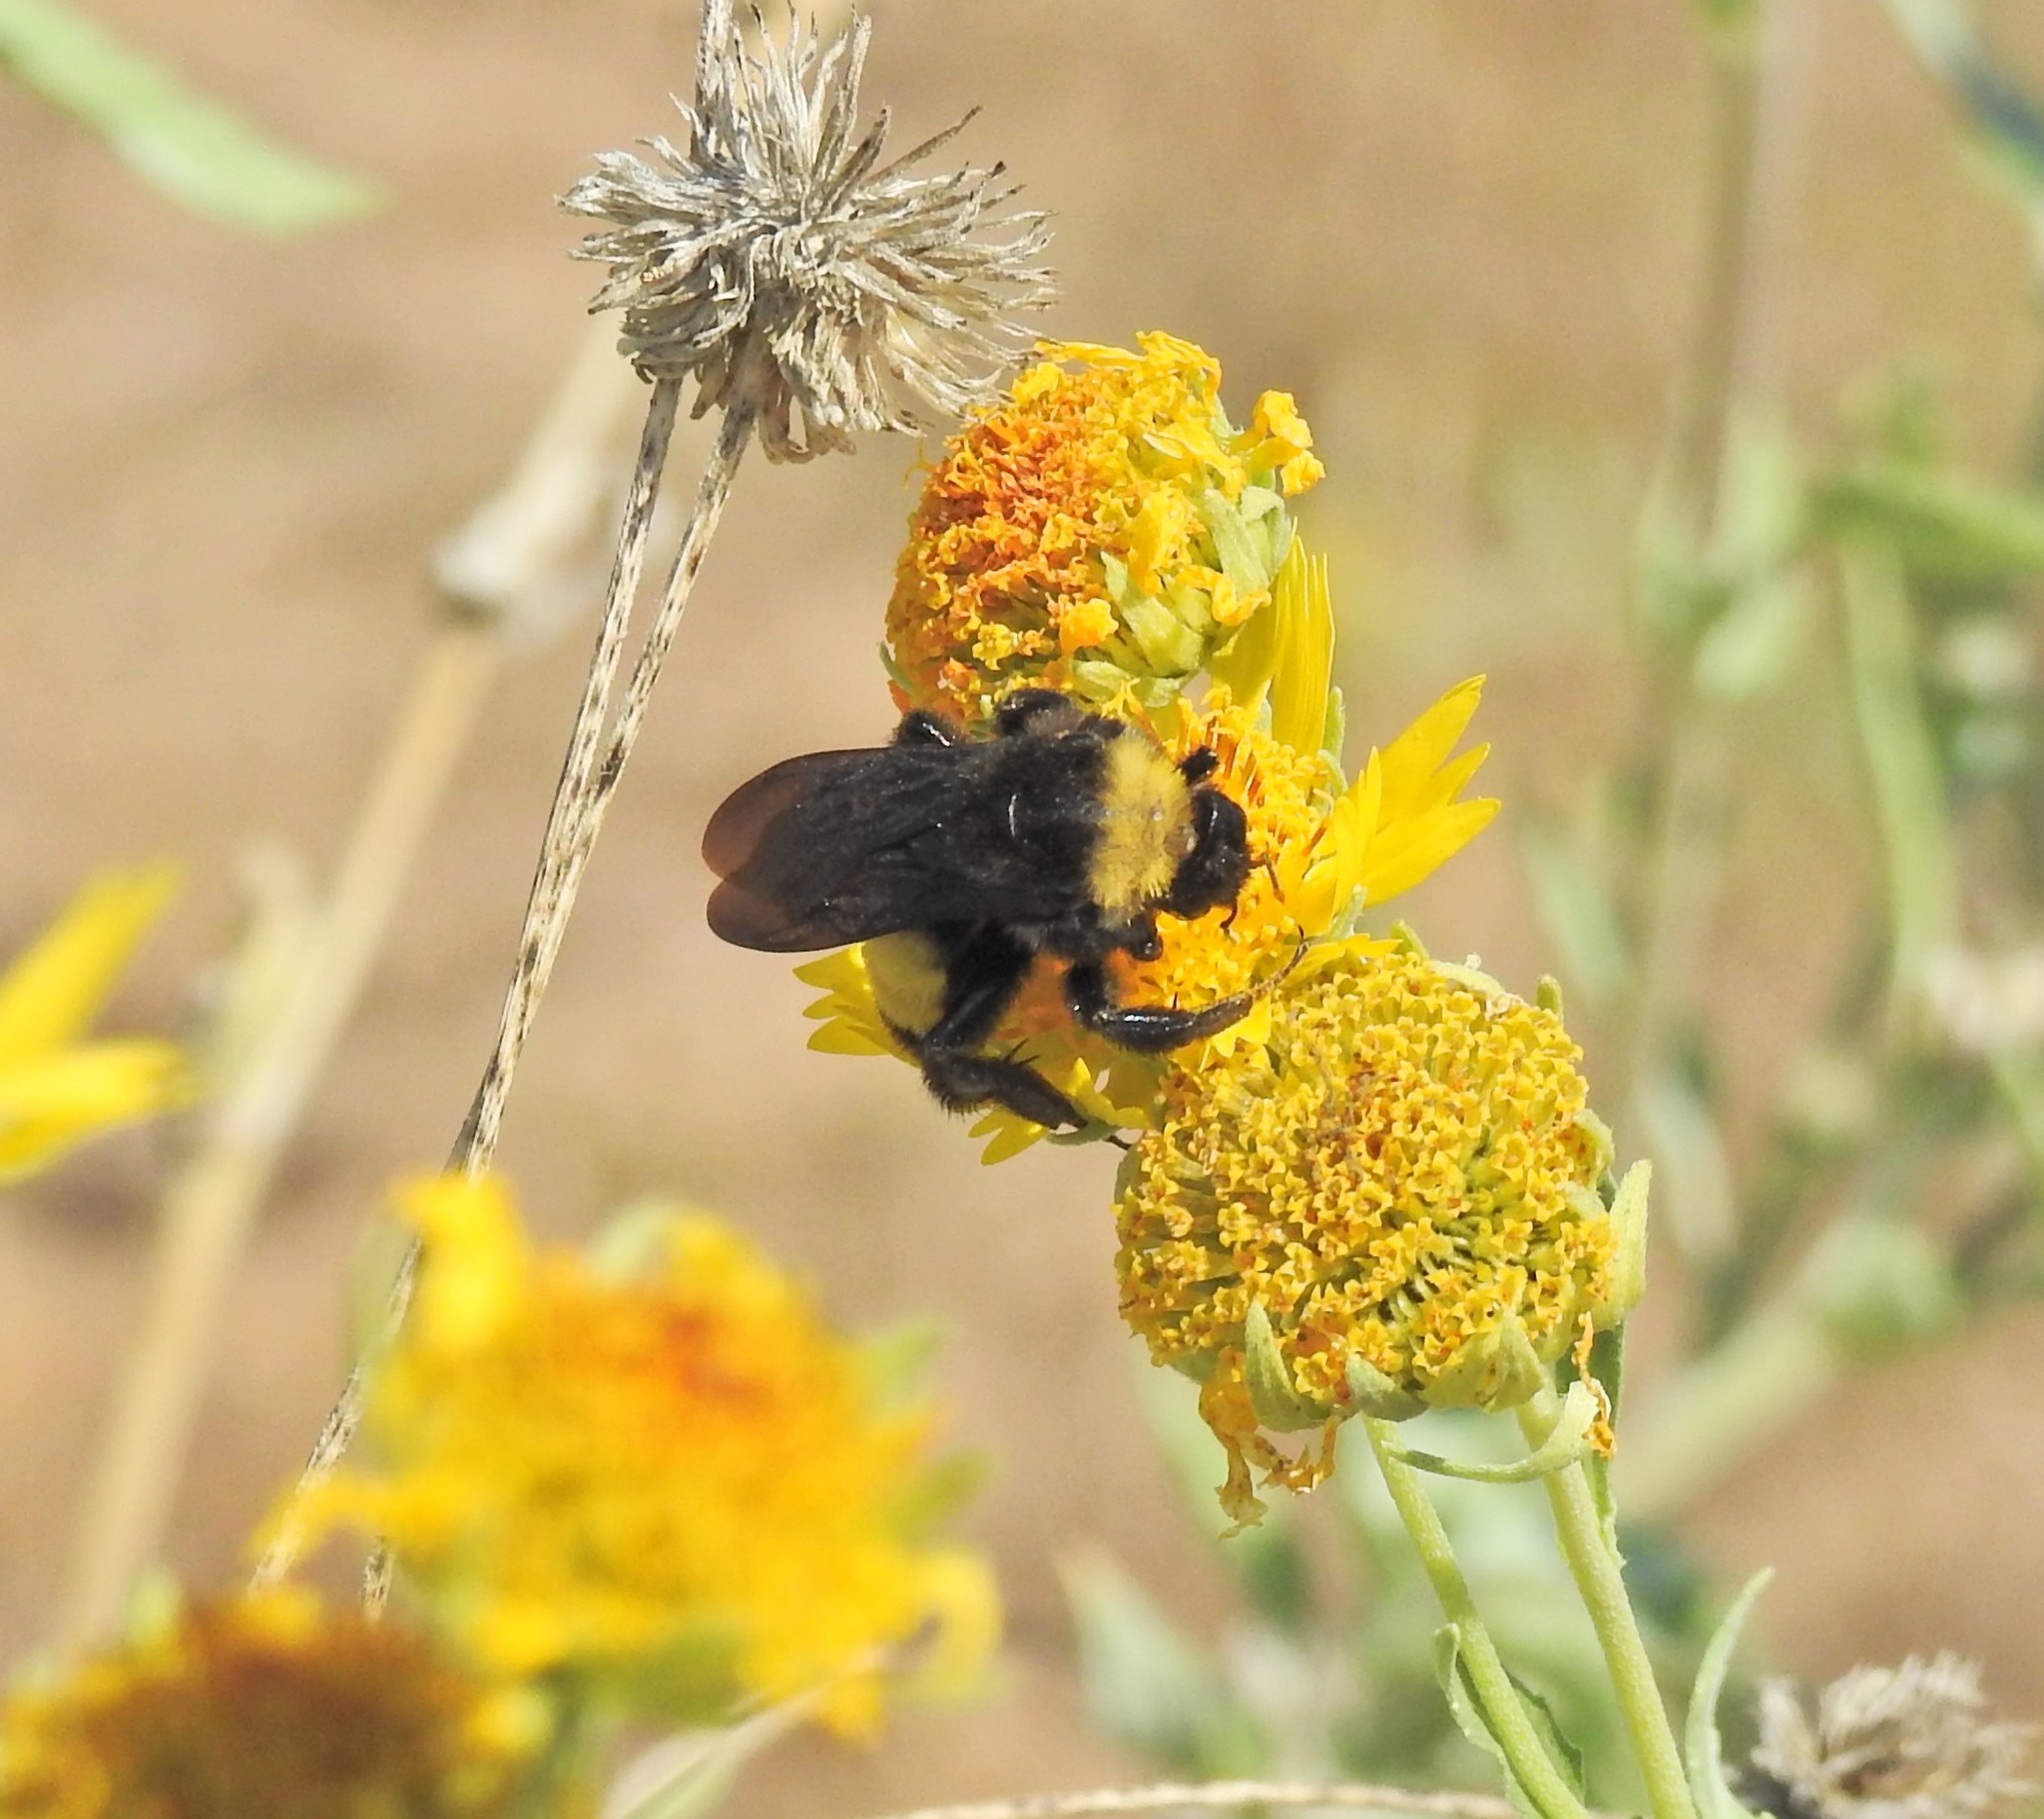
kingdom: Animalia
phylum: Arthropoda
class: Insecta
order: Hymenoptera
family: Apidae
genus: Bombus
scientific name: Bombus pensylvanicus
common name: Bumble bee
